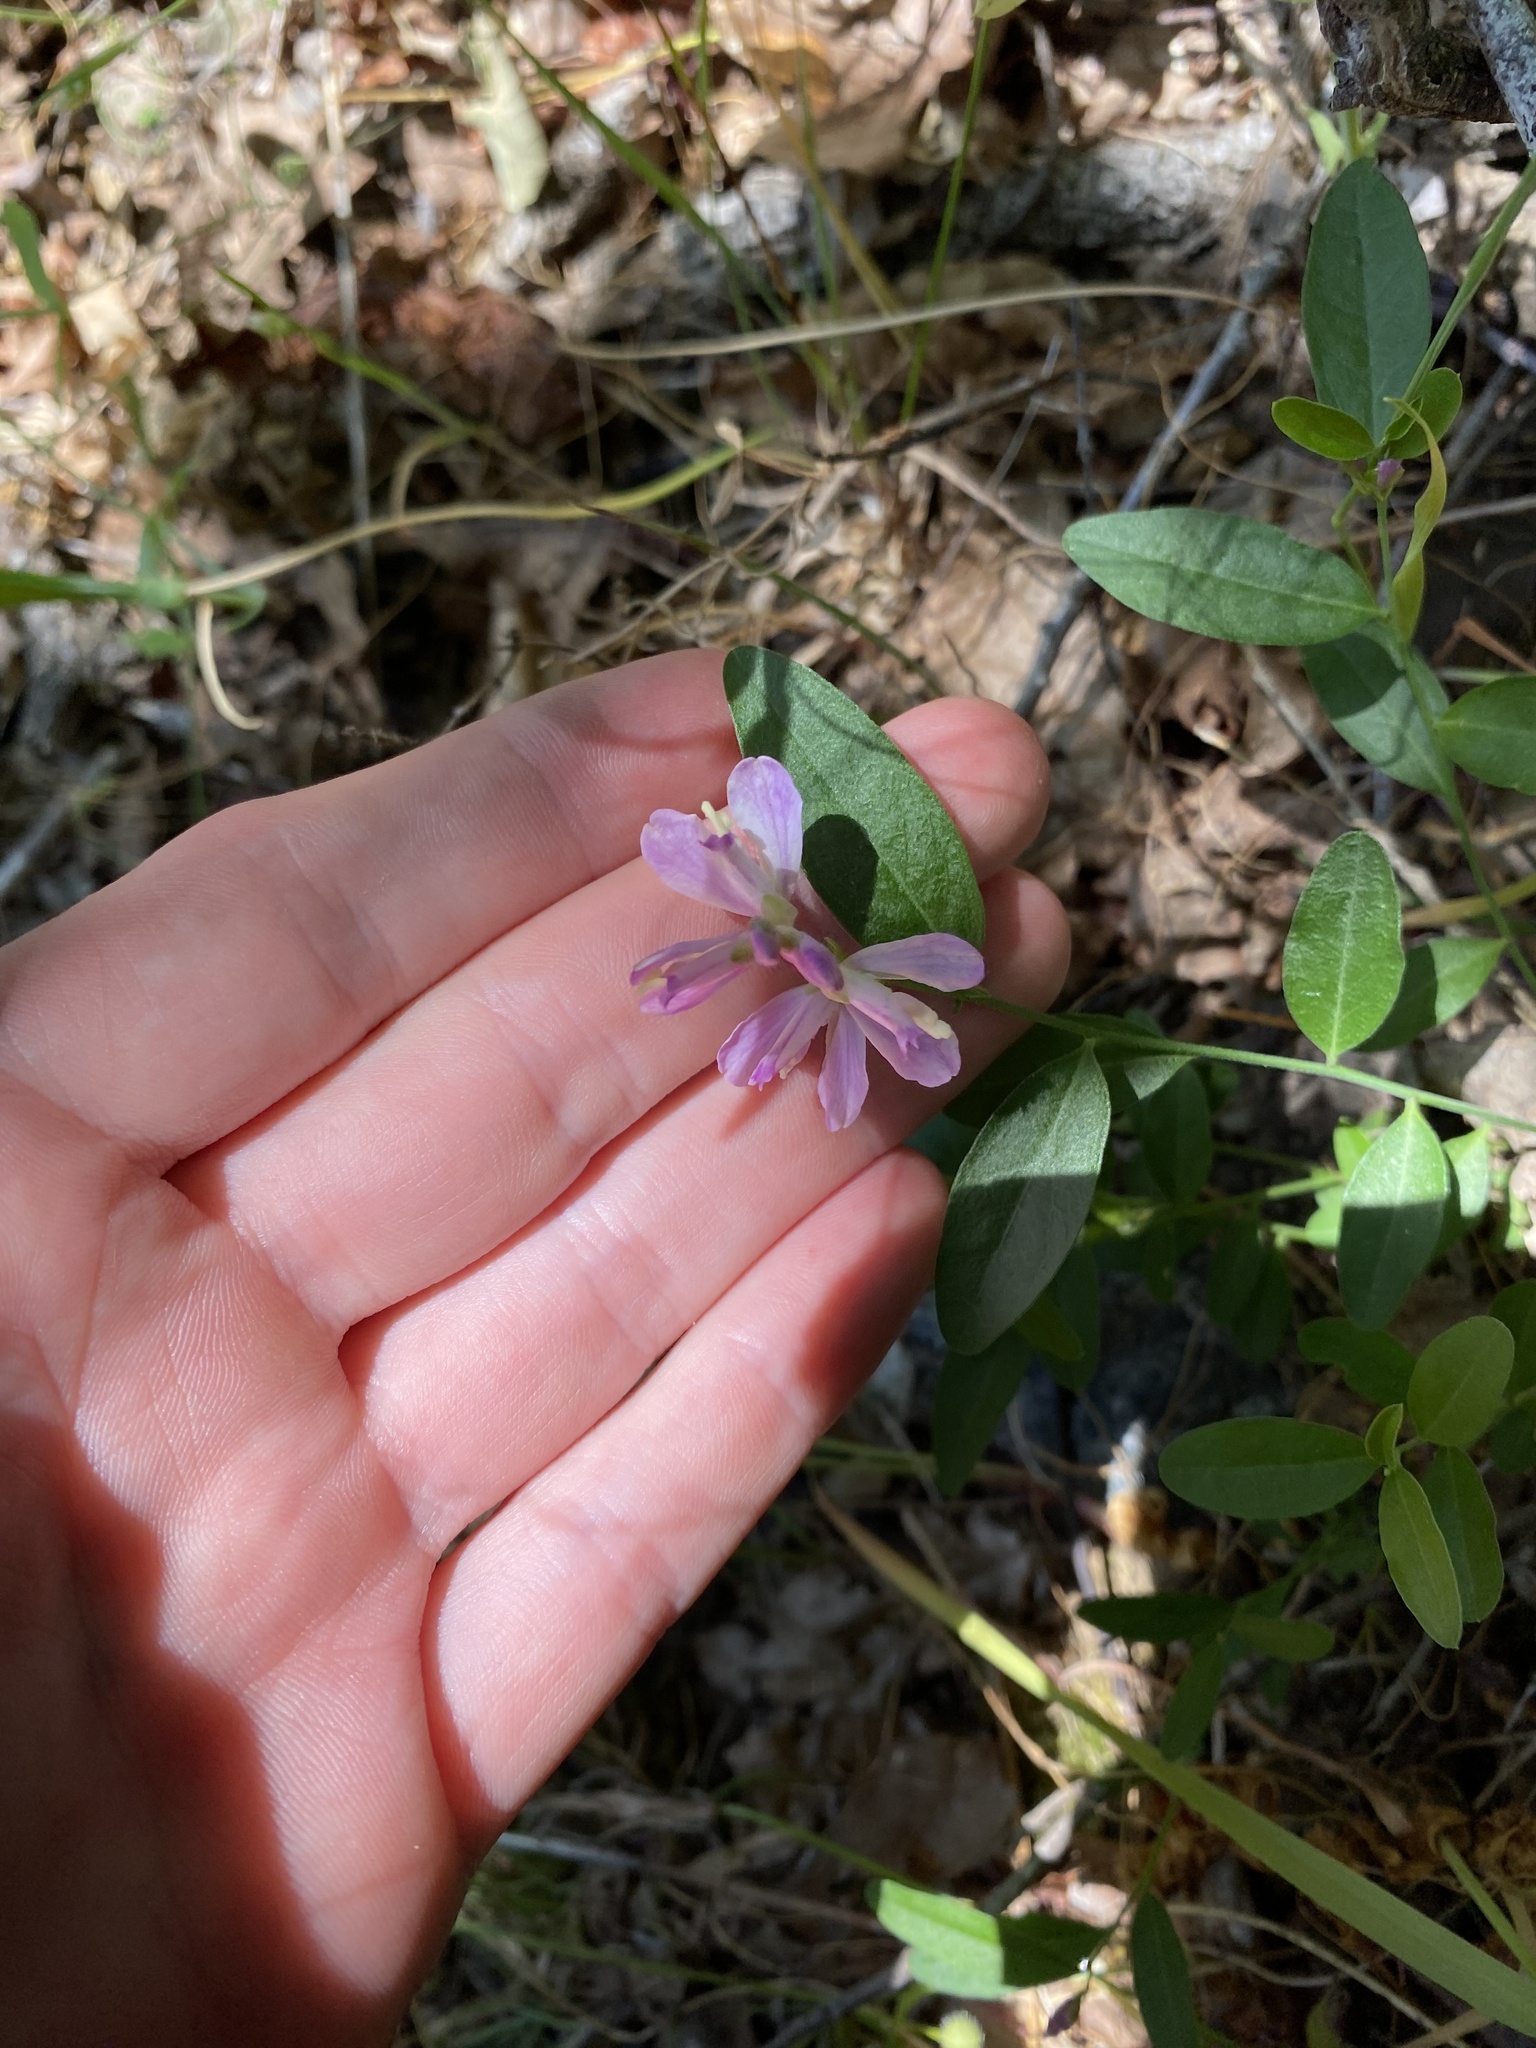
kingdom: Plantae
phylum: Tracheophyta
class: Magnoliopsida
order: Fabales
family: Polygalaceae
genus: Rhinotropis
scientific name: Rhinotropis californica
